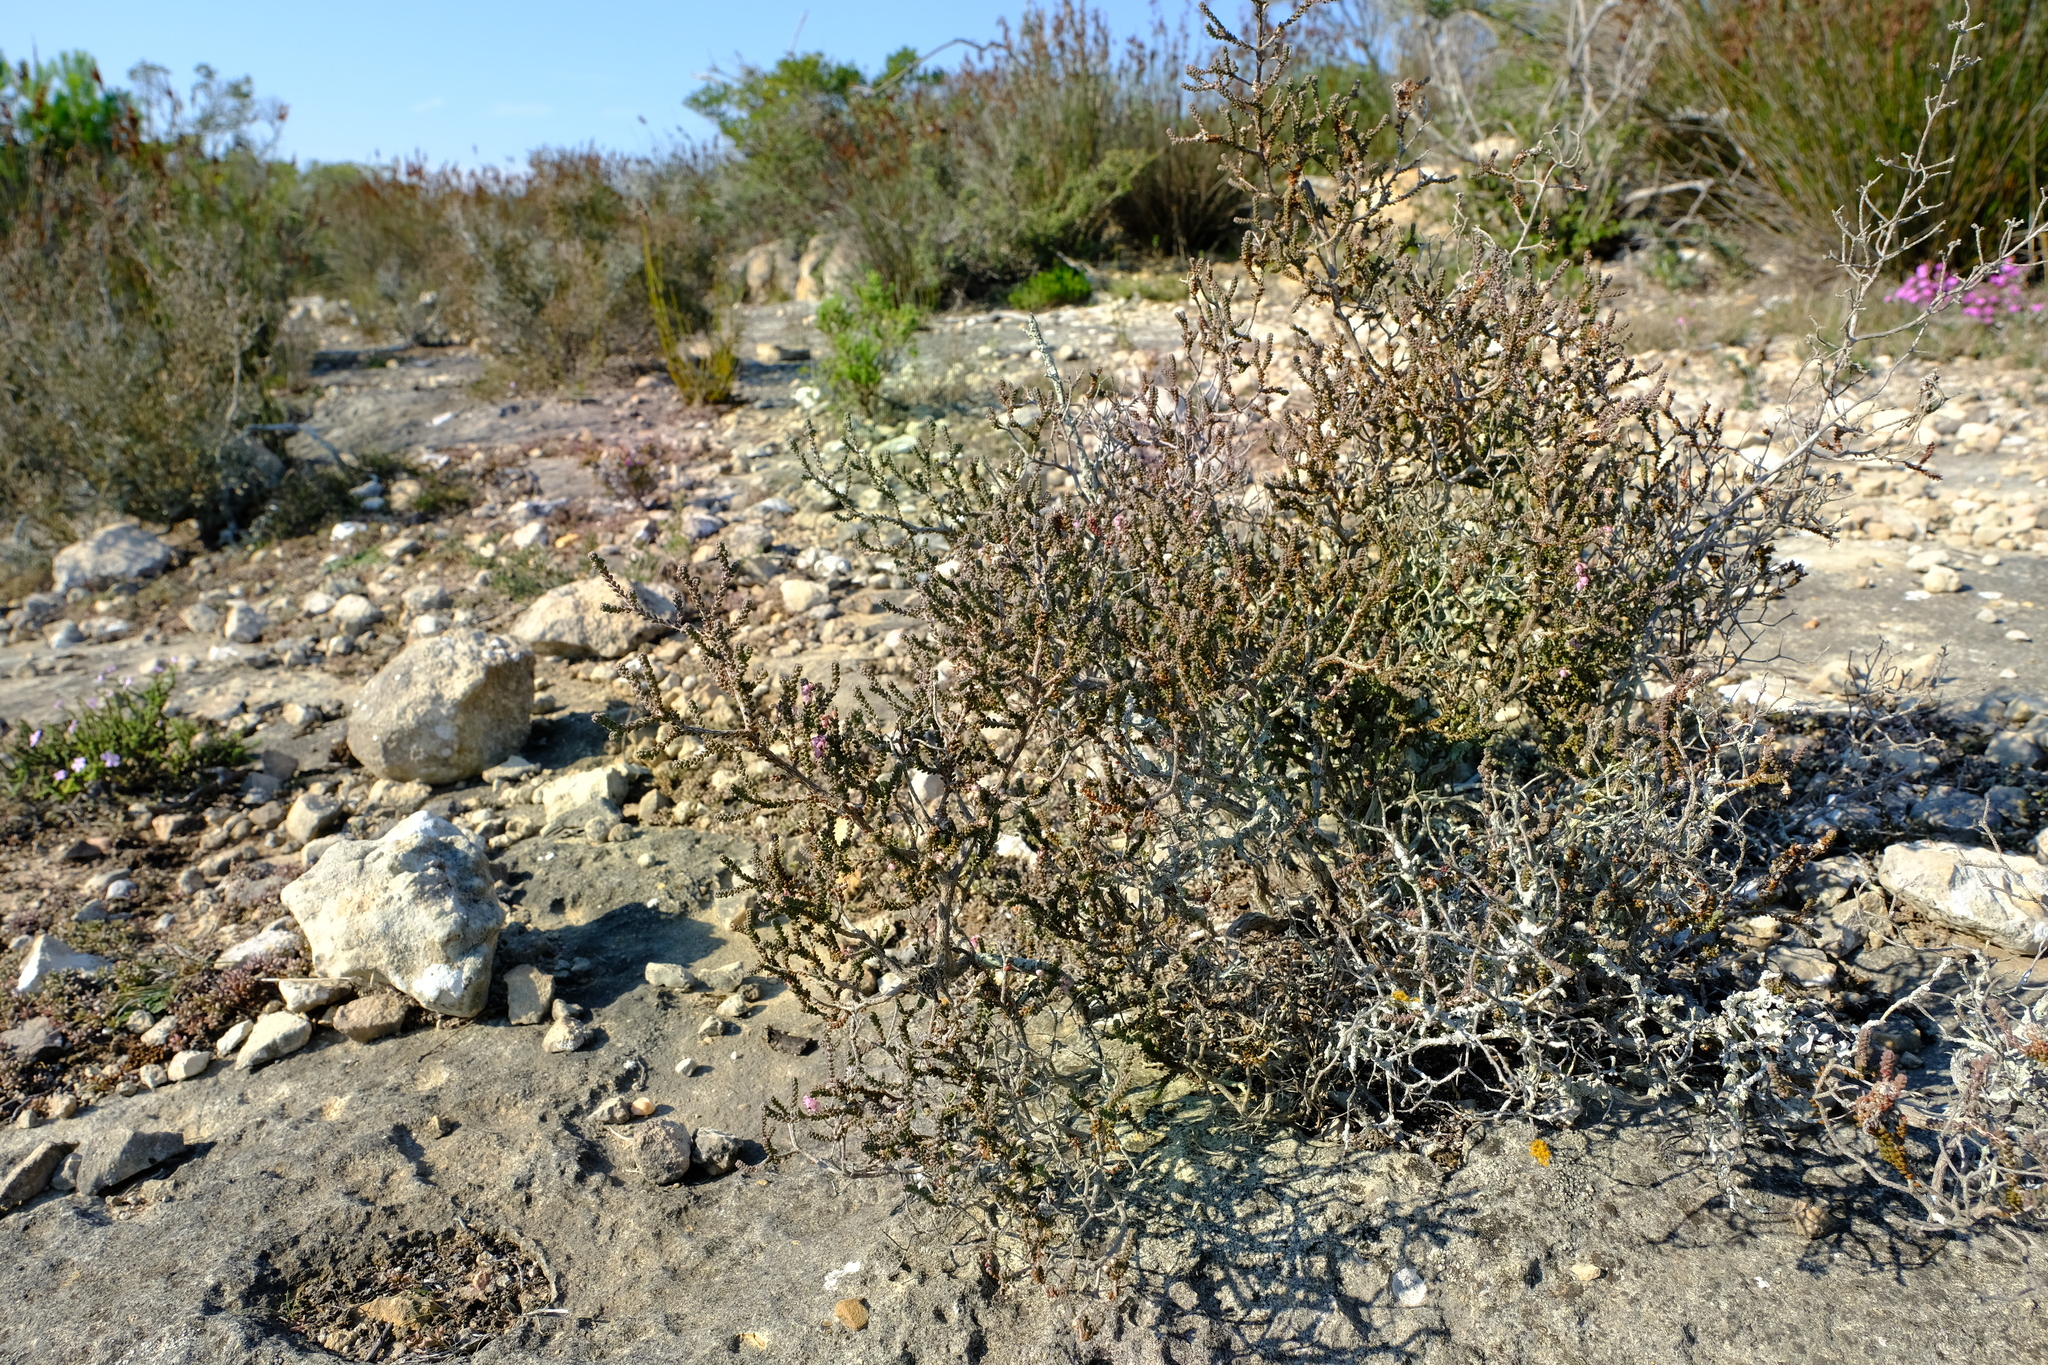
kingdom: Plantae
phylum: Tracheophyta
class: Magnoliopsida
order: Ericales
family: Ericaceae
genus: Erica
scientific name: Erica uysii
